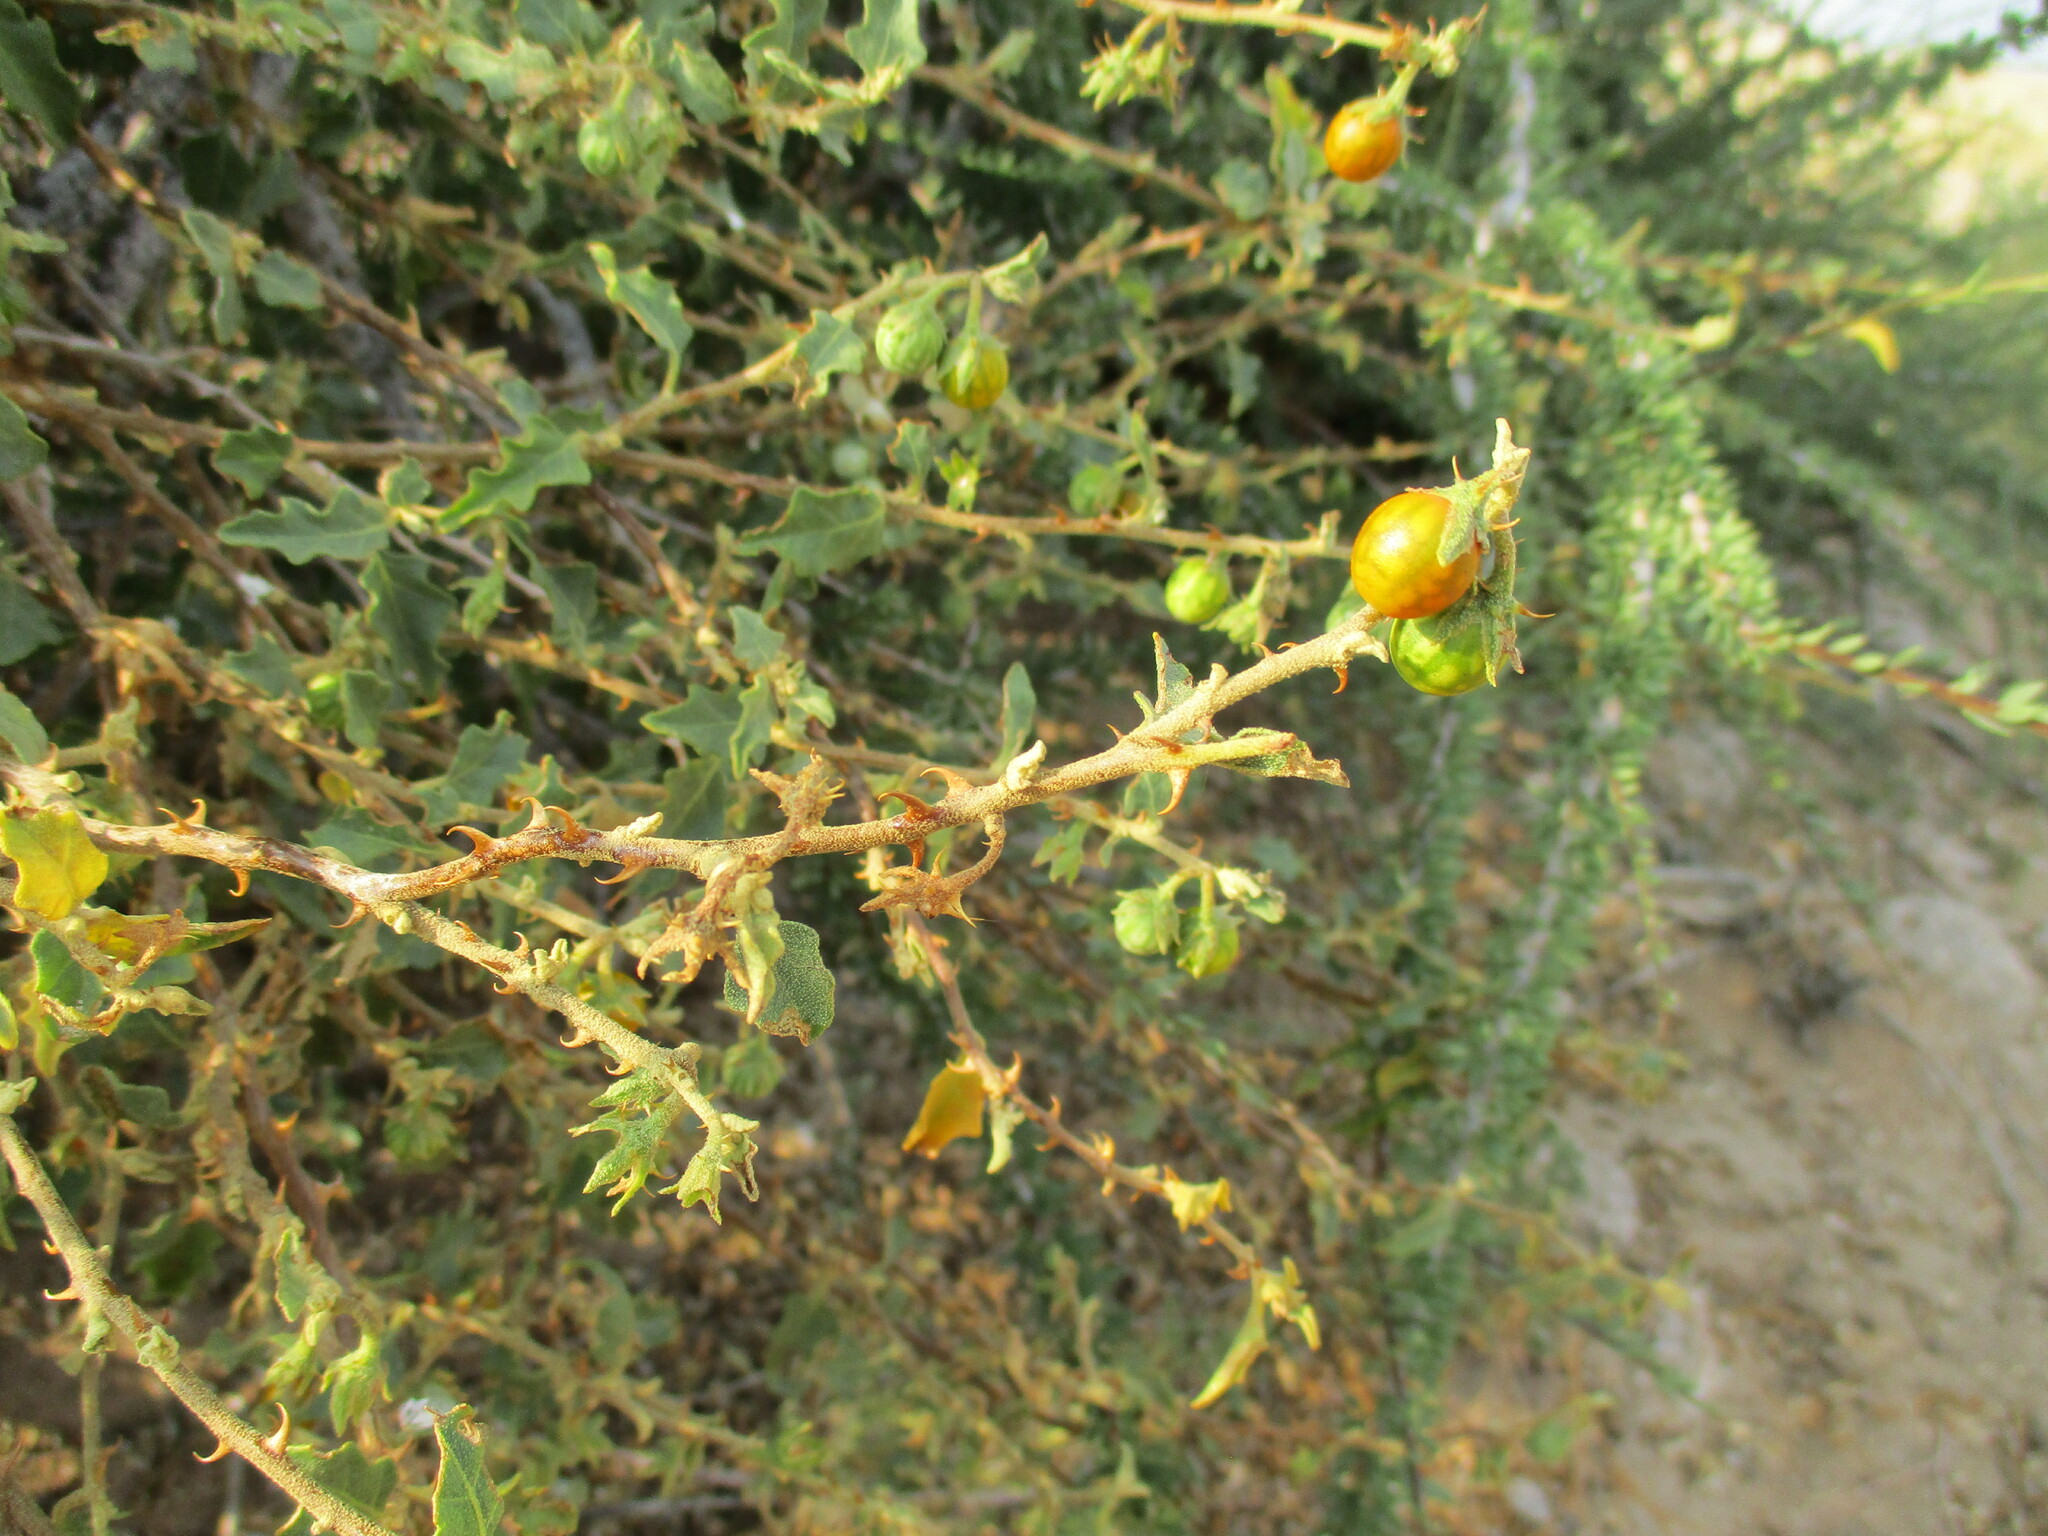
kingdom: Plantae
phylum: Tracheophyta
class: Magnoliopsida
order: Solanales
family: Solanaceae
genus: Solanum
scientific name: Solanum capense
